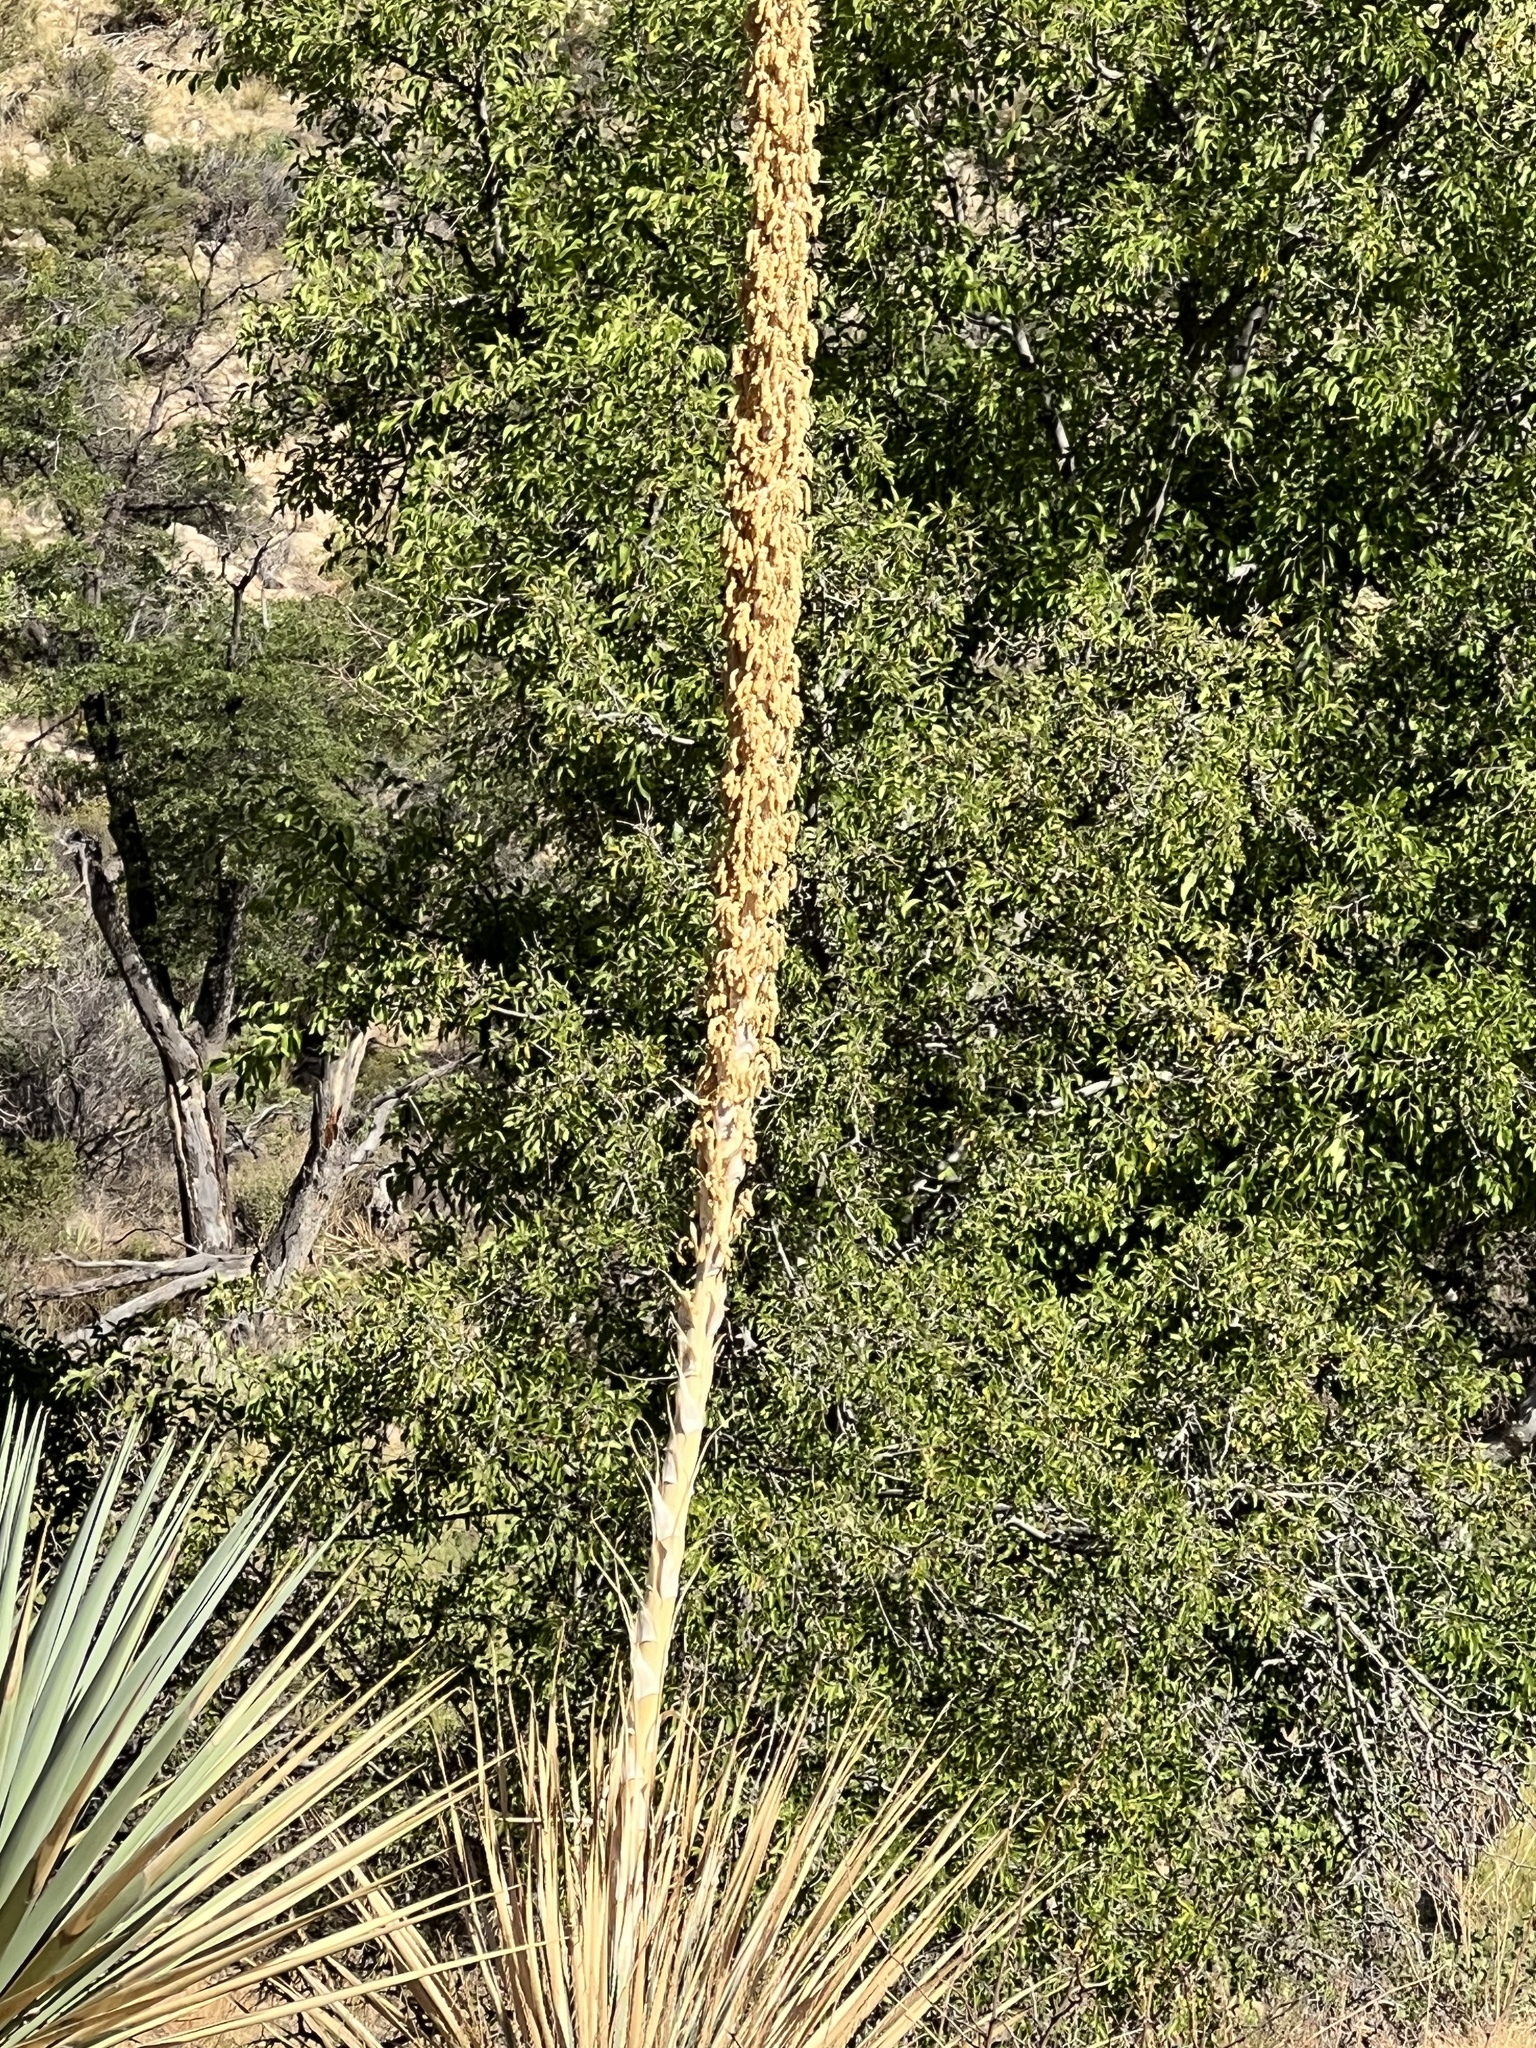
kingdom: Plantae
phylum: Tracheophyta
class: Liliopsida
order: Asparagales
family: Asparagaceae
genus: Dasylirion
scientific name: Dasylirion wheeleri
